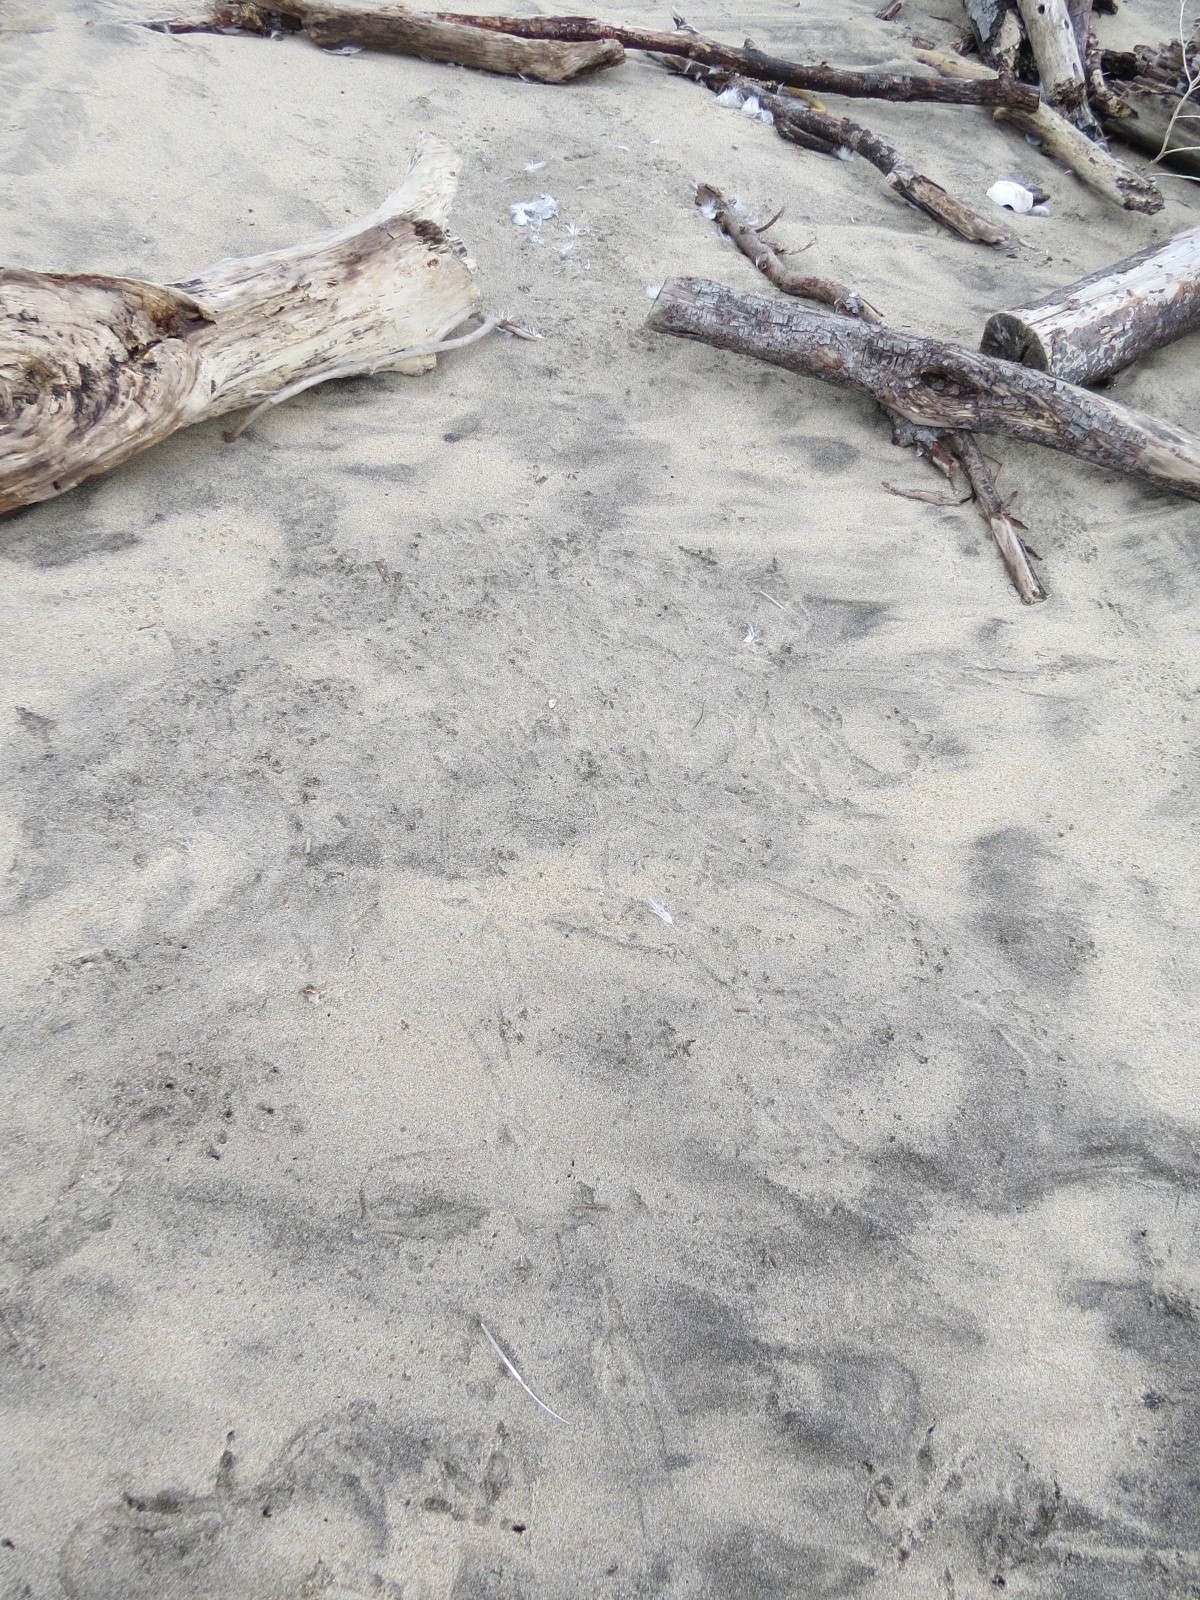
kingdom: Animalia
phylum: Chordata
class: Aves
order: Strigiformes
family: Strigidae
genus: Bubo
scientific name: Bubo virginianus
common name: Great horned owl
